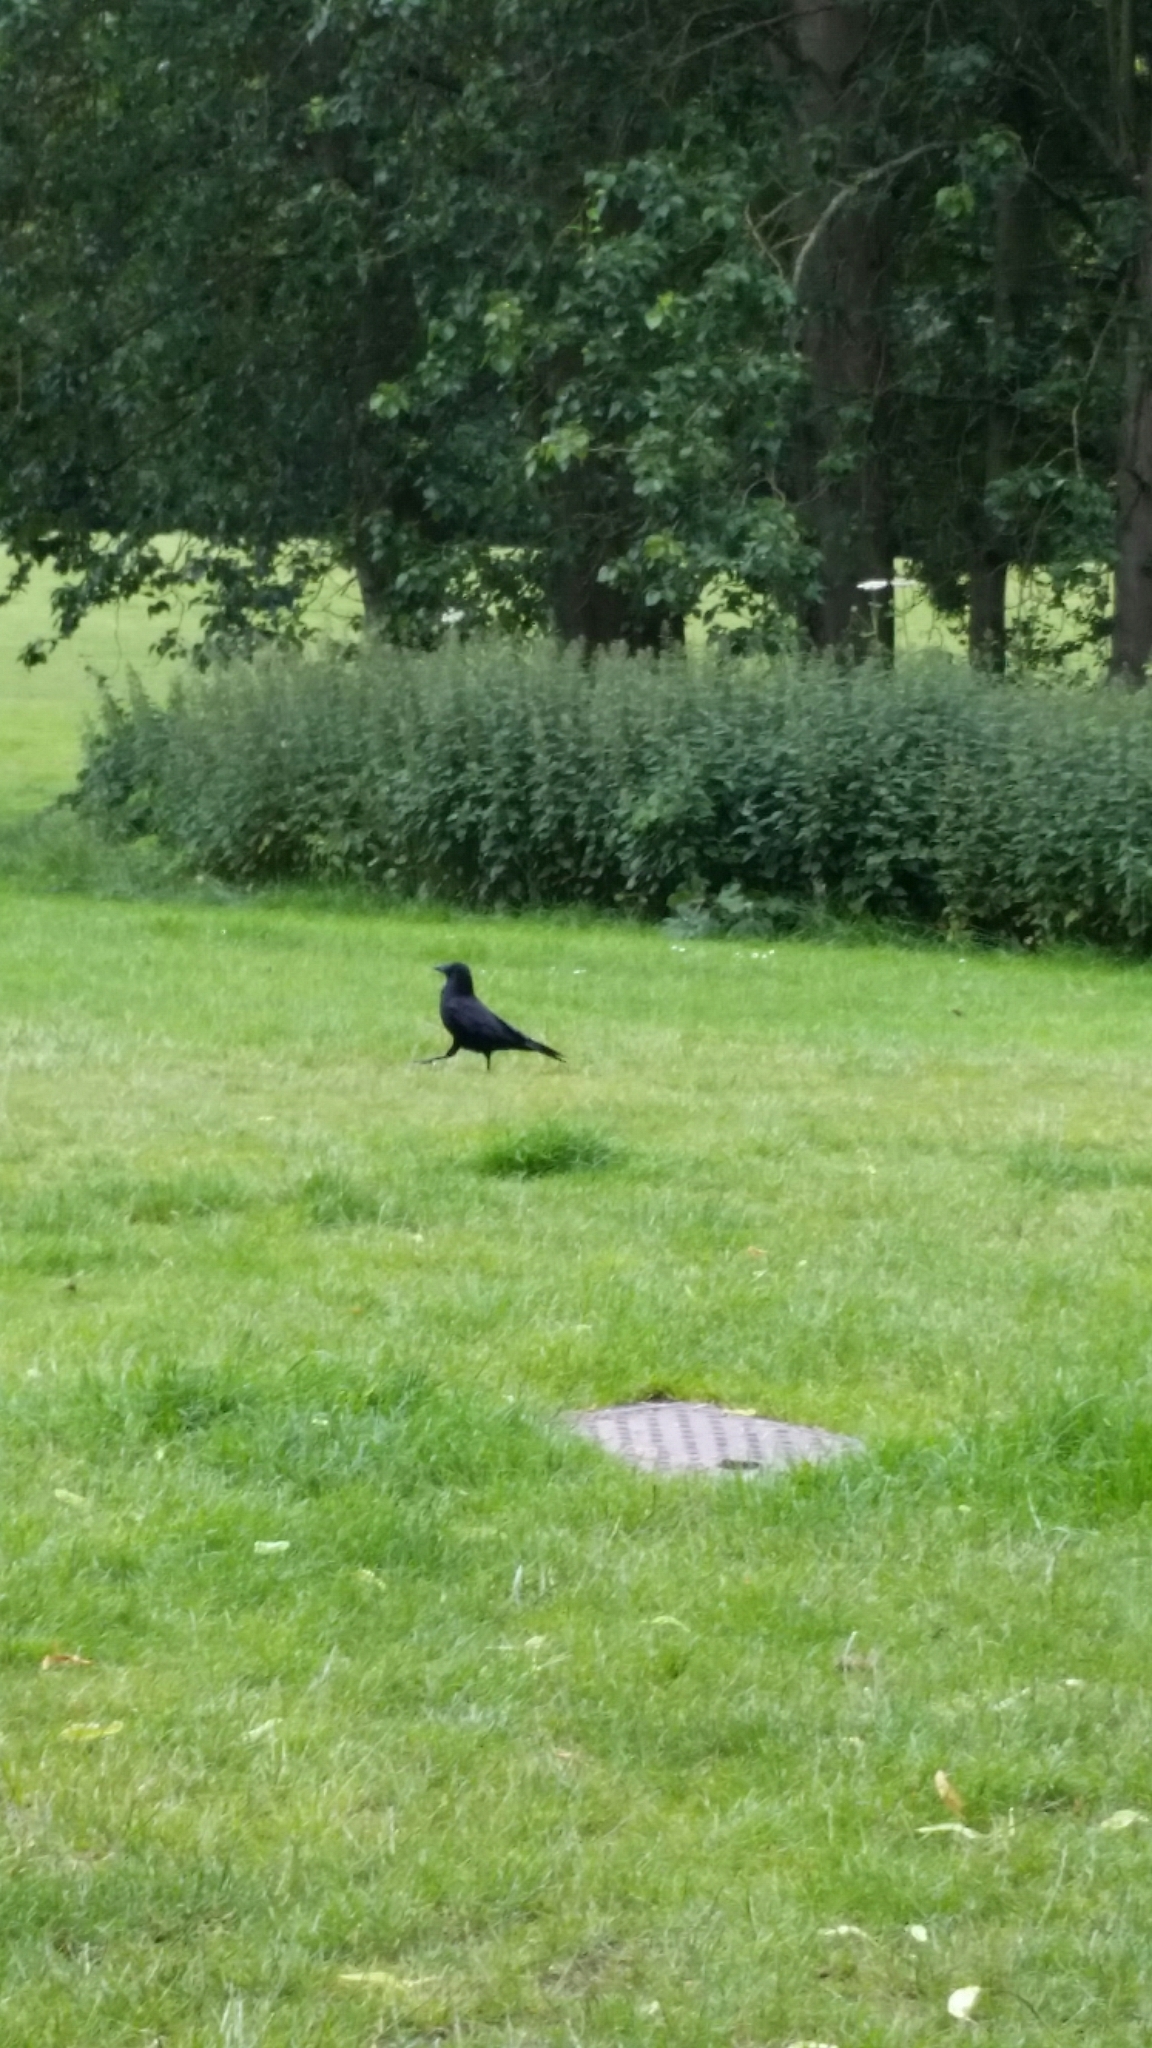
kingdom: Animalia
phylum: Chordata
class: Aves
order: Passeriformes
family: Corvidae
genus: Corvus
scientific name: Corvus corone
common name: Carrion crow
